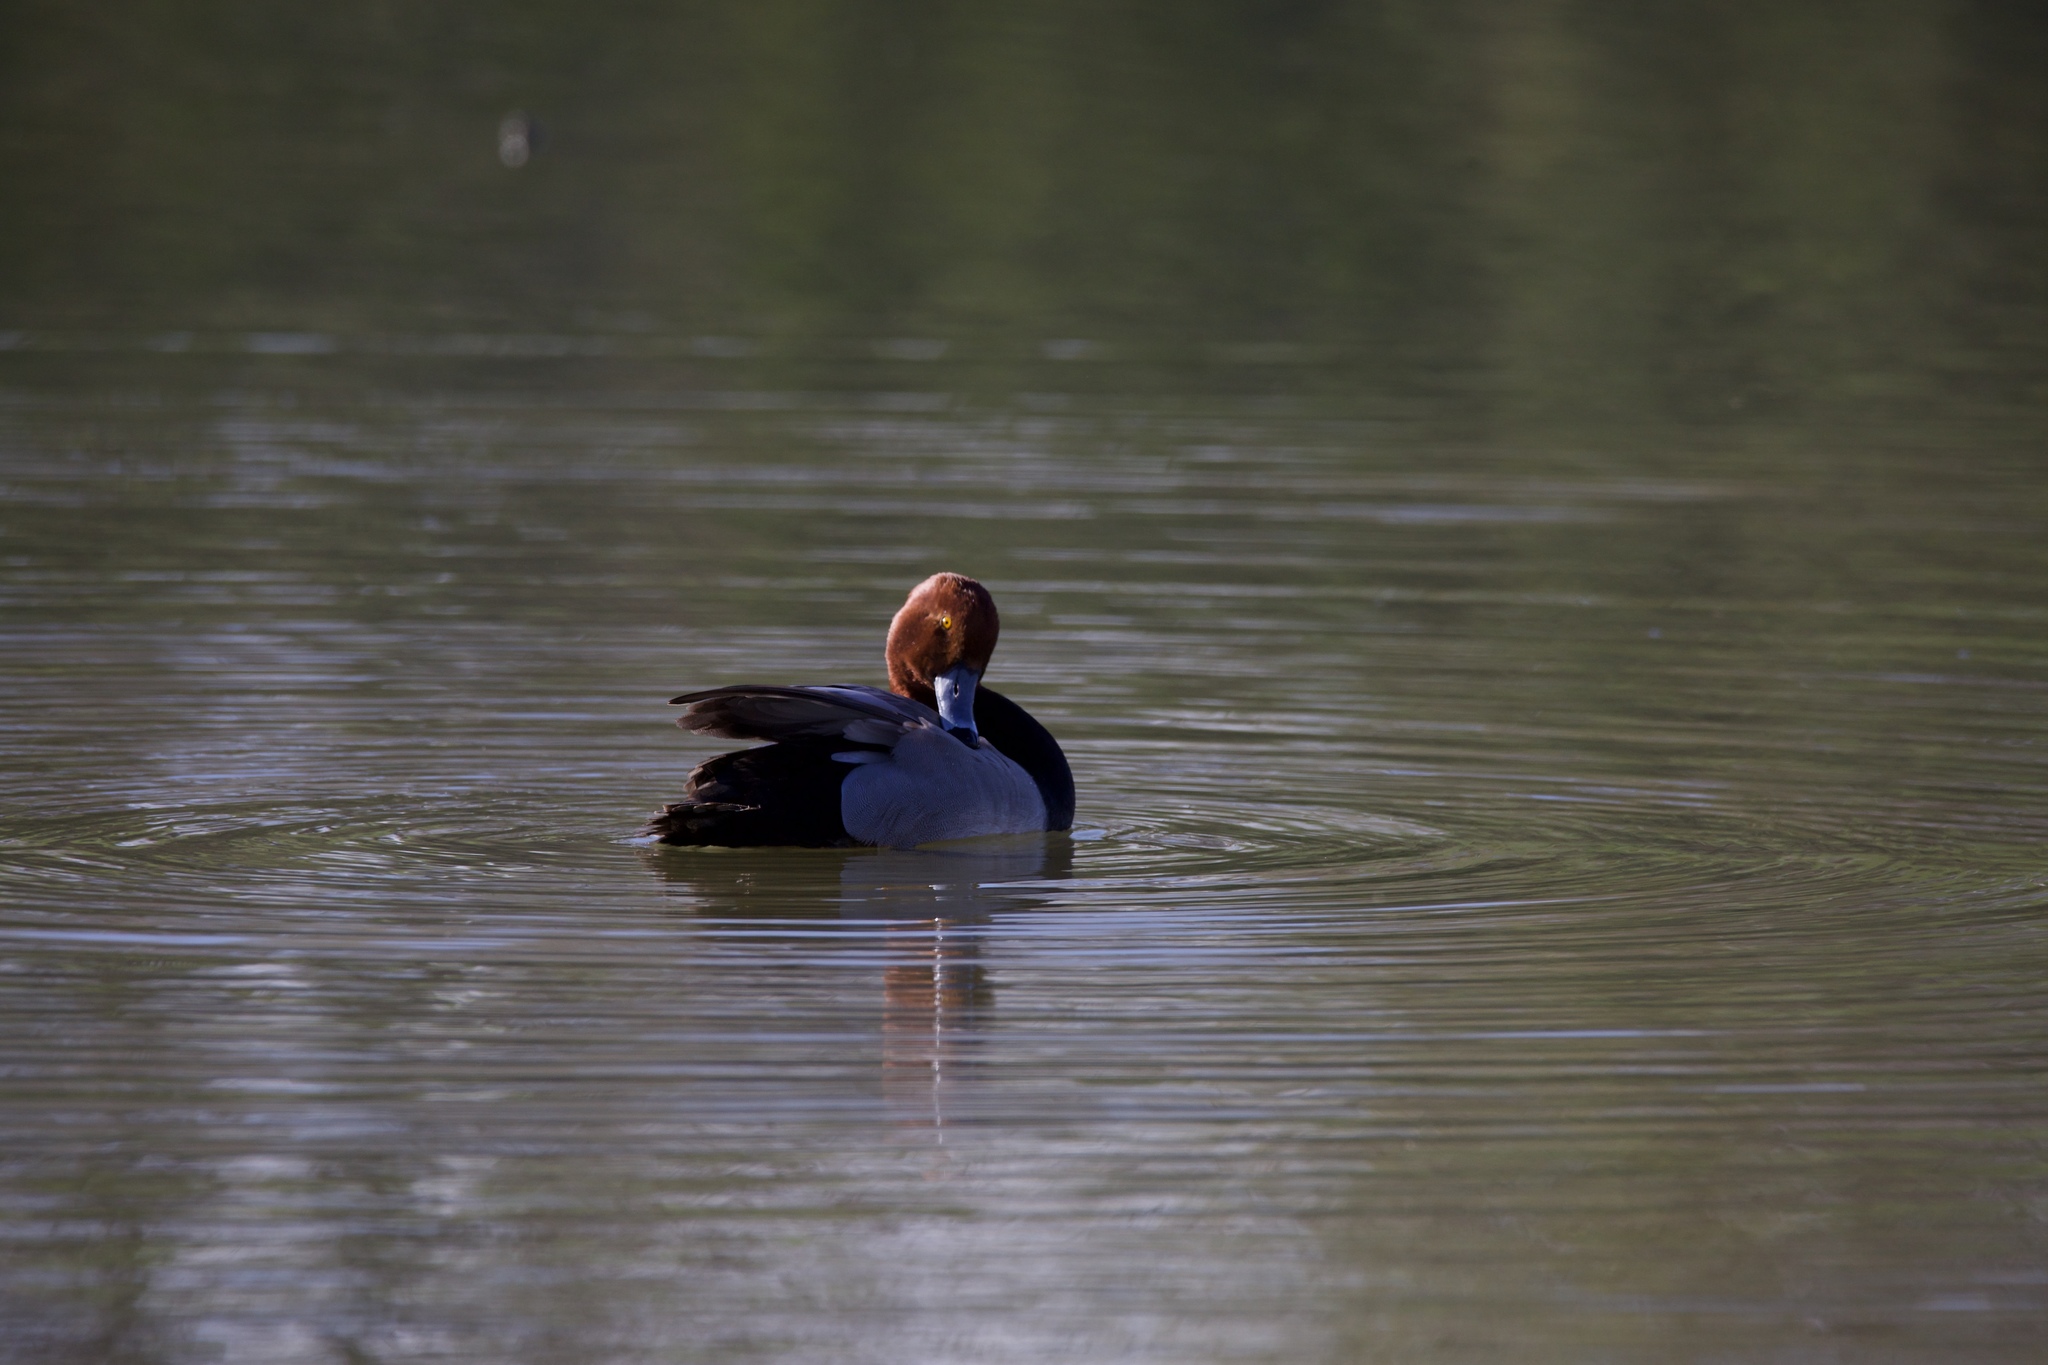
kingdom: Animalia
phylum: Chordata
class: Aves
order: Anseriformes
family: Anatidae
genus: Aythya
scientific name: Aythya americana
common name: Redhead
